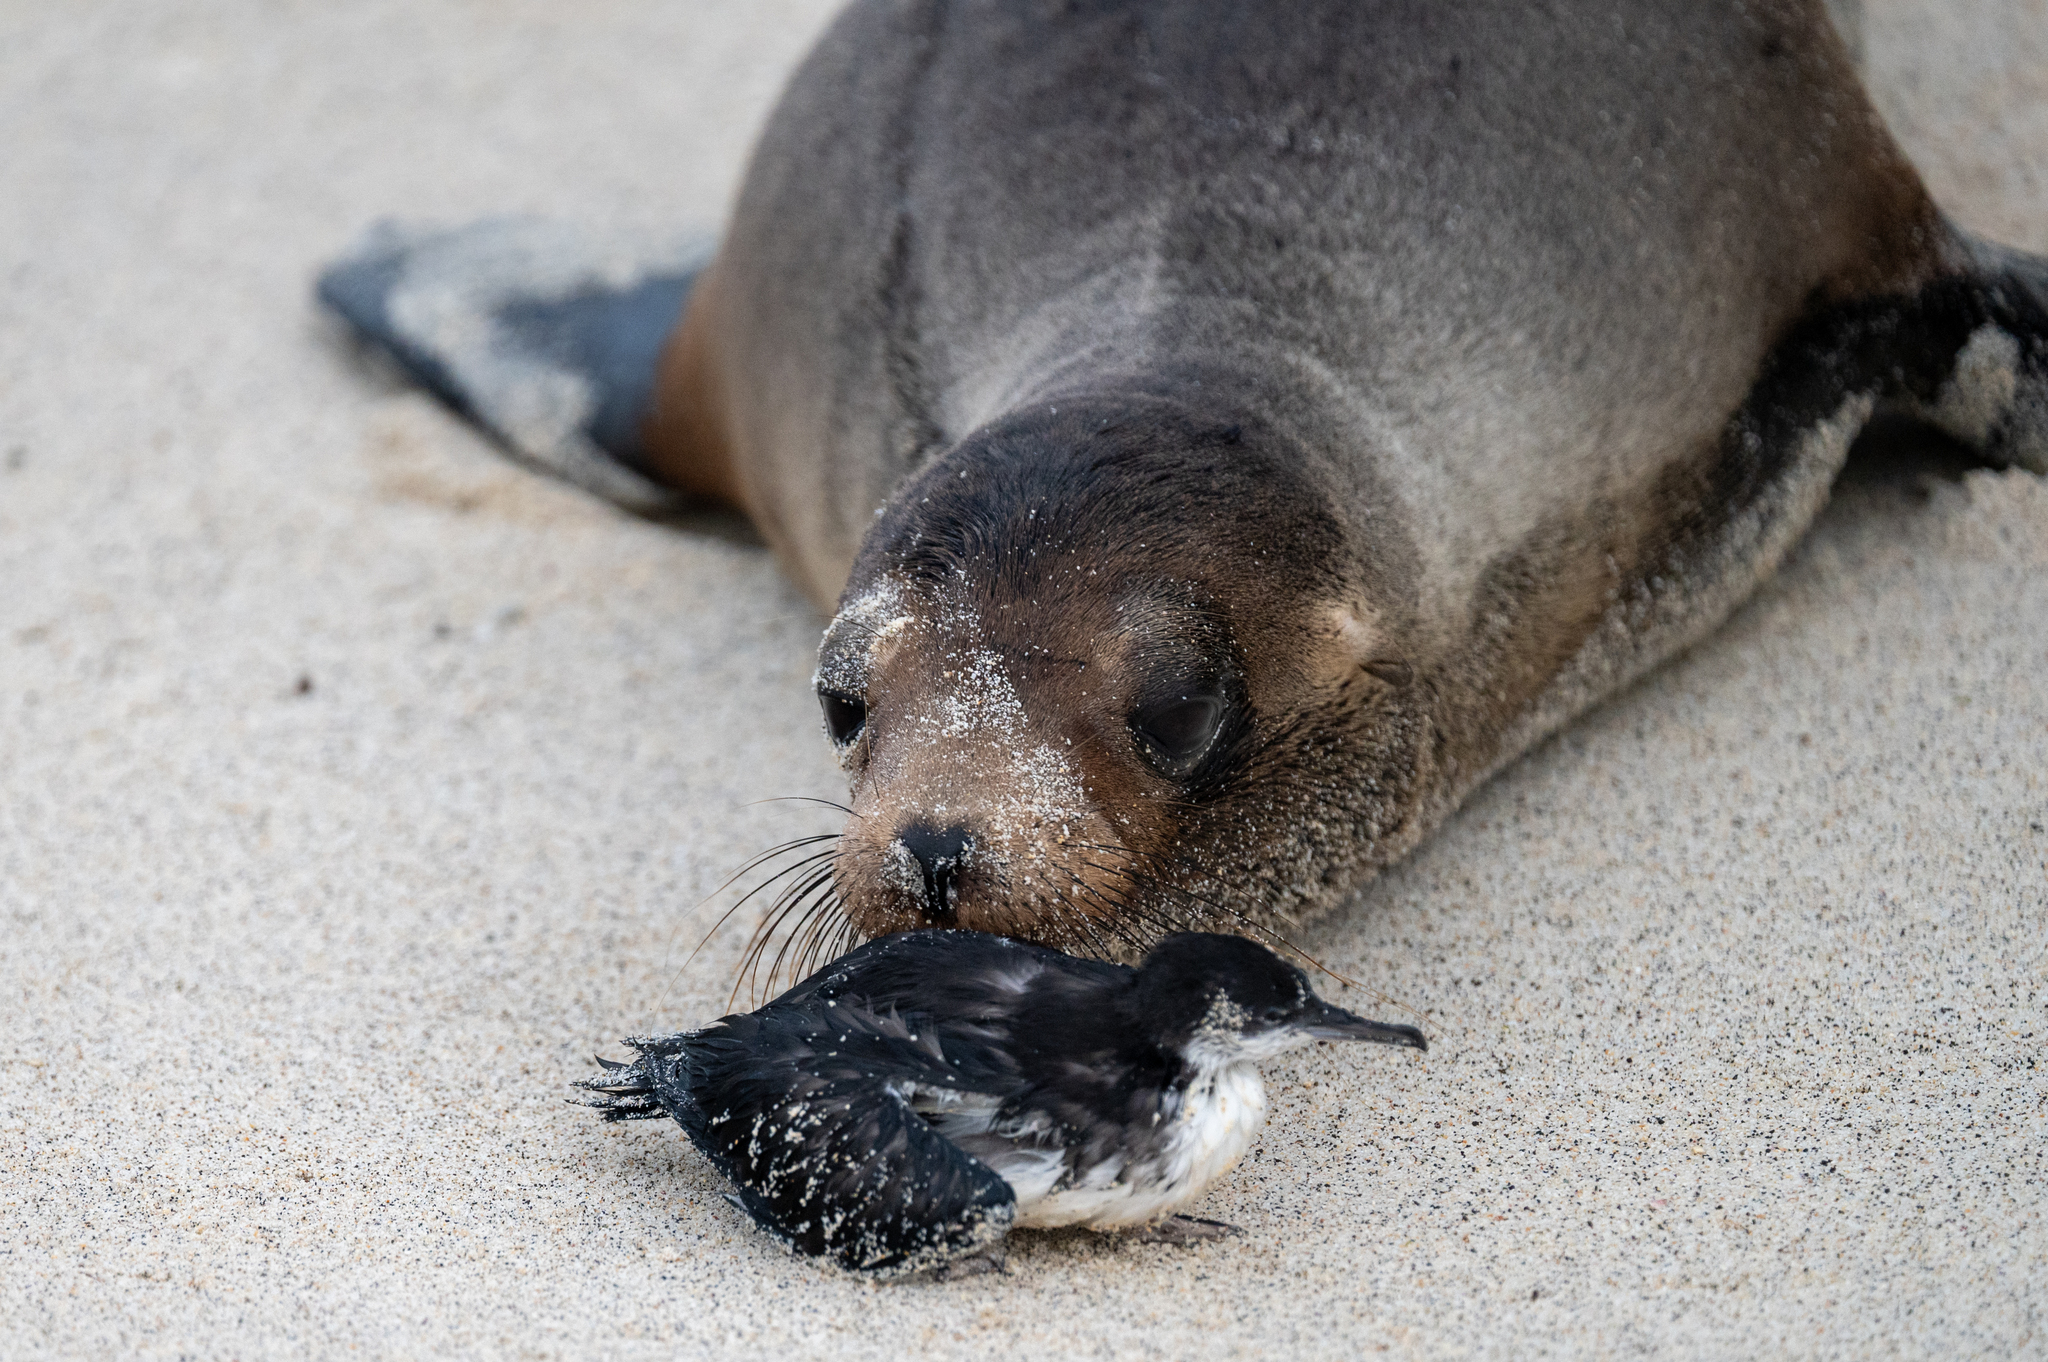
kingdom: Animalia
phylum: Chordata
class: Mammalia
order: Carnivora
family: Otariidae
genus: Zalophus
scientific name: Zalophus wollebaeki
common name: Galapagos sea lion
